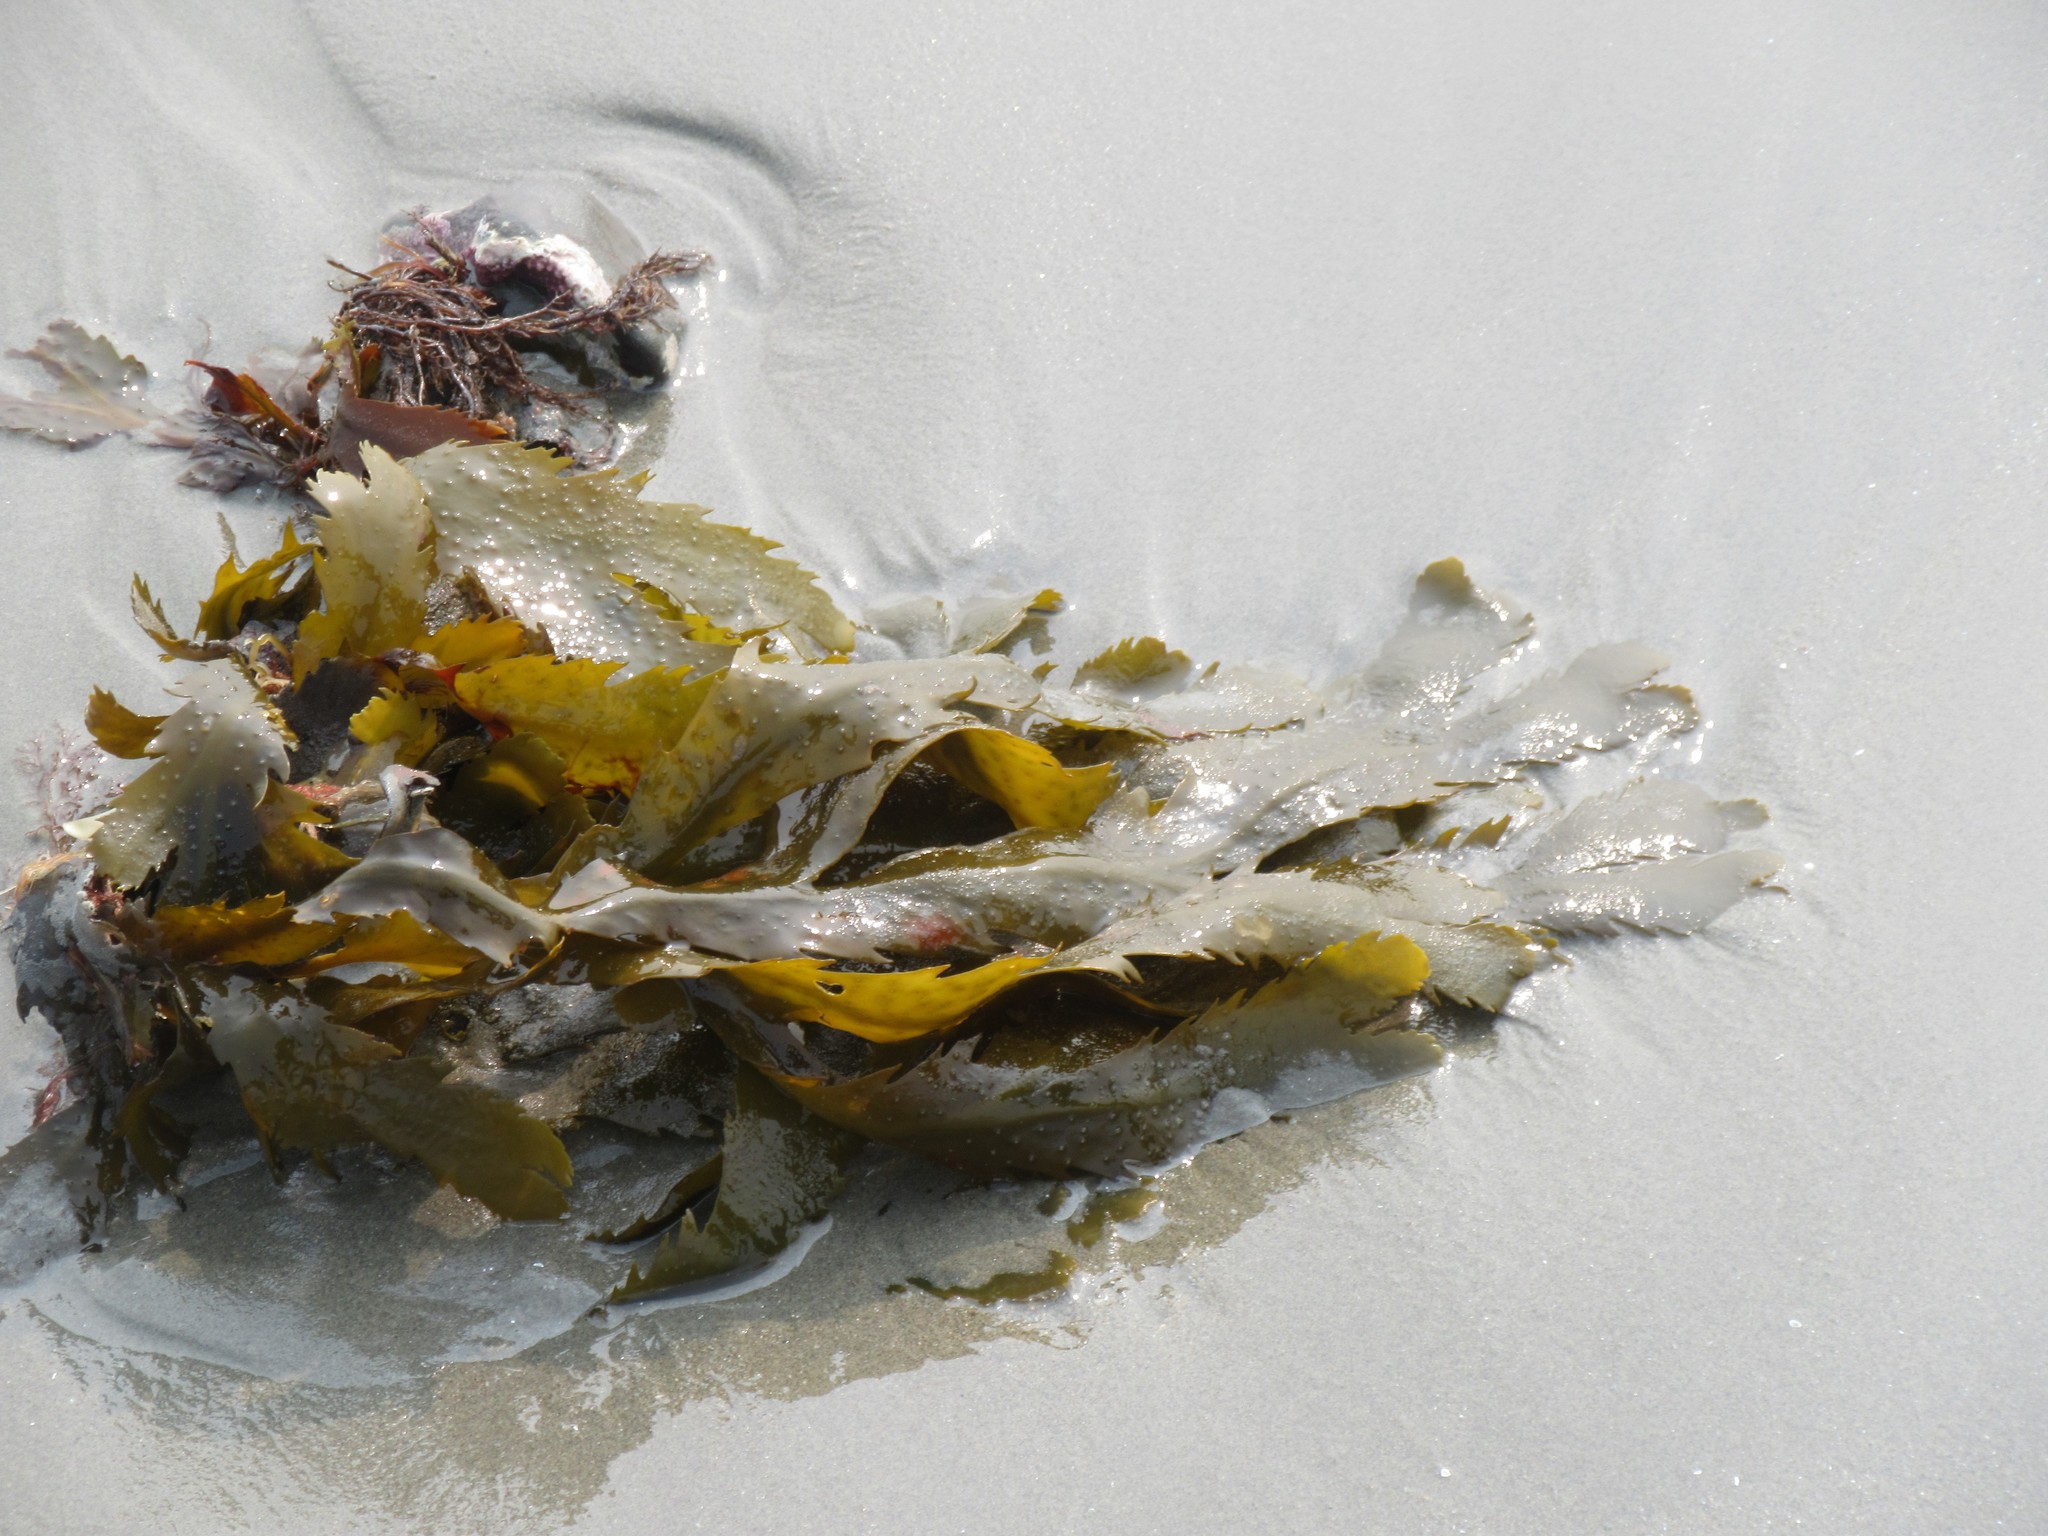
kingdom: Chromista
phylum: Ochrophyta
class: Phaeophyceae
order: Fucales
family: Fucaceae
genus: Fucus
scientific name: Fucus serratus
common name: Toothed wrack
